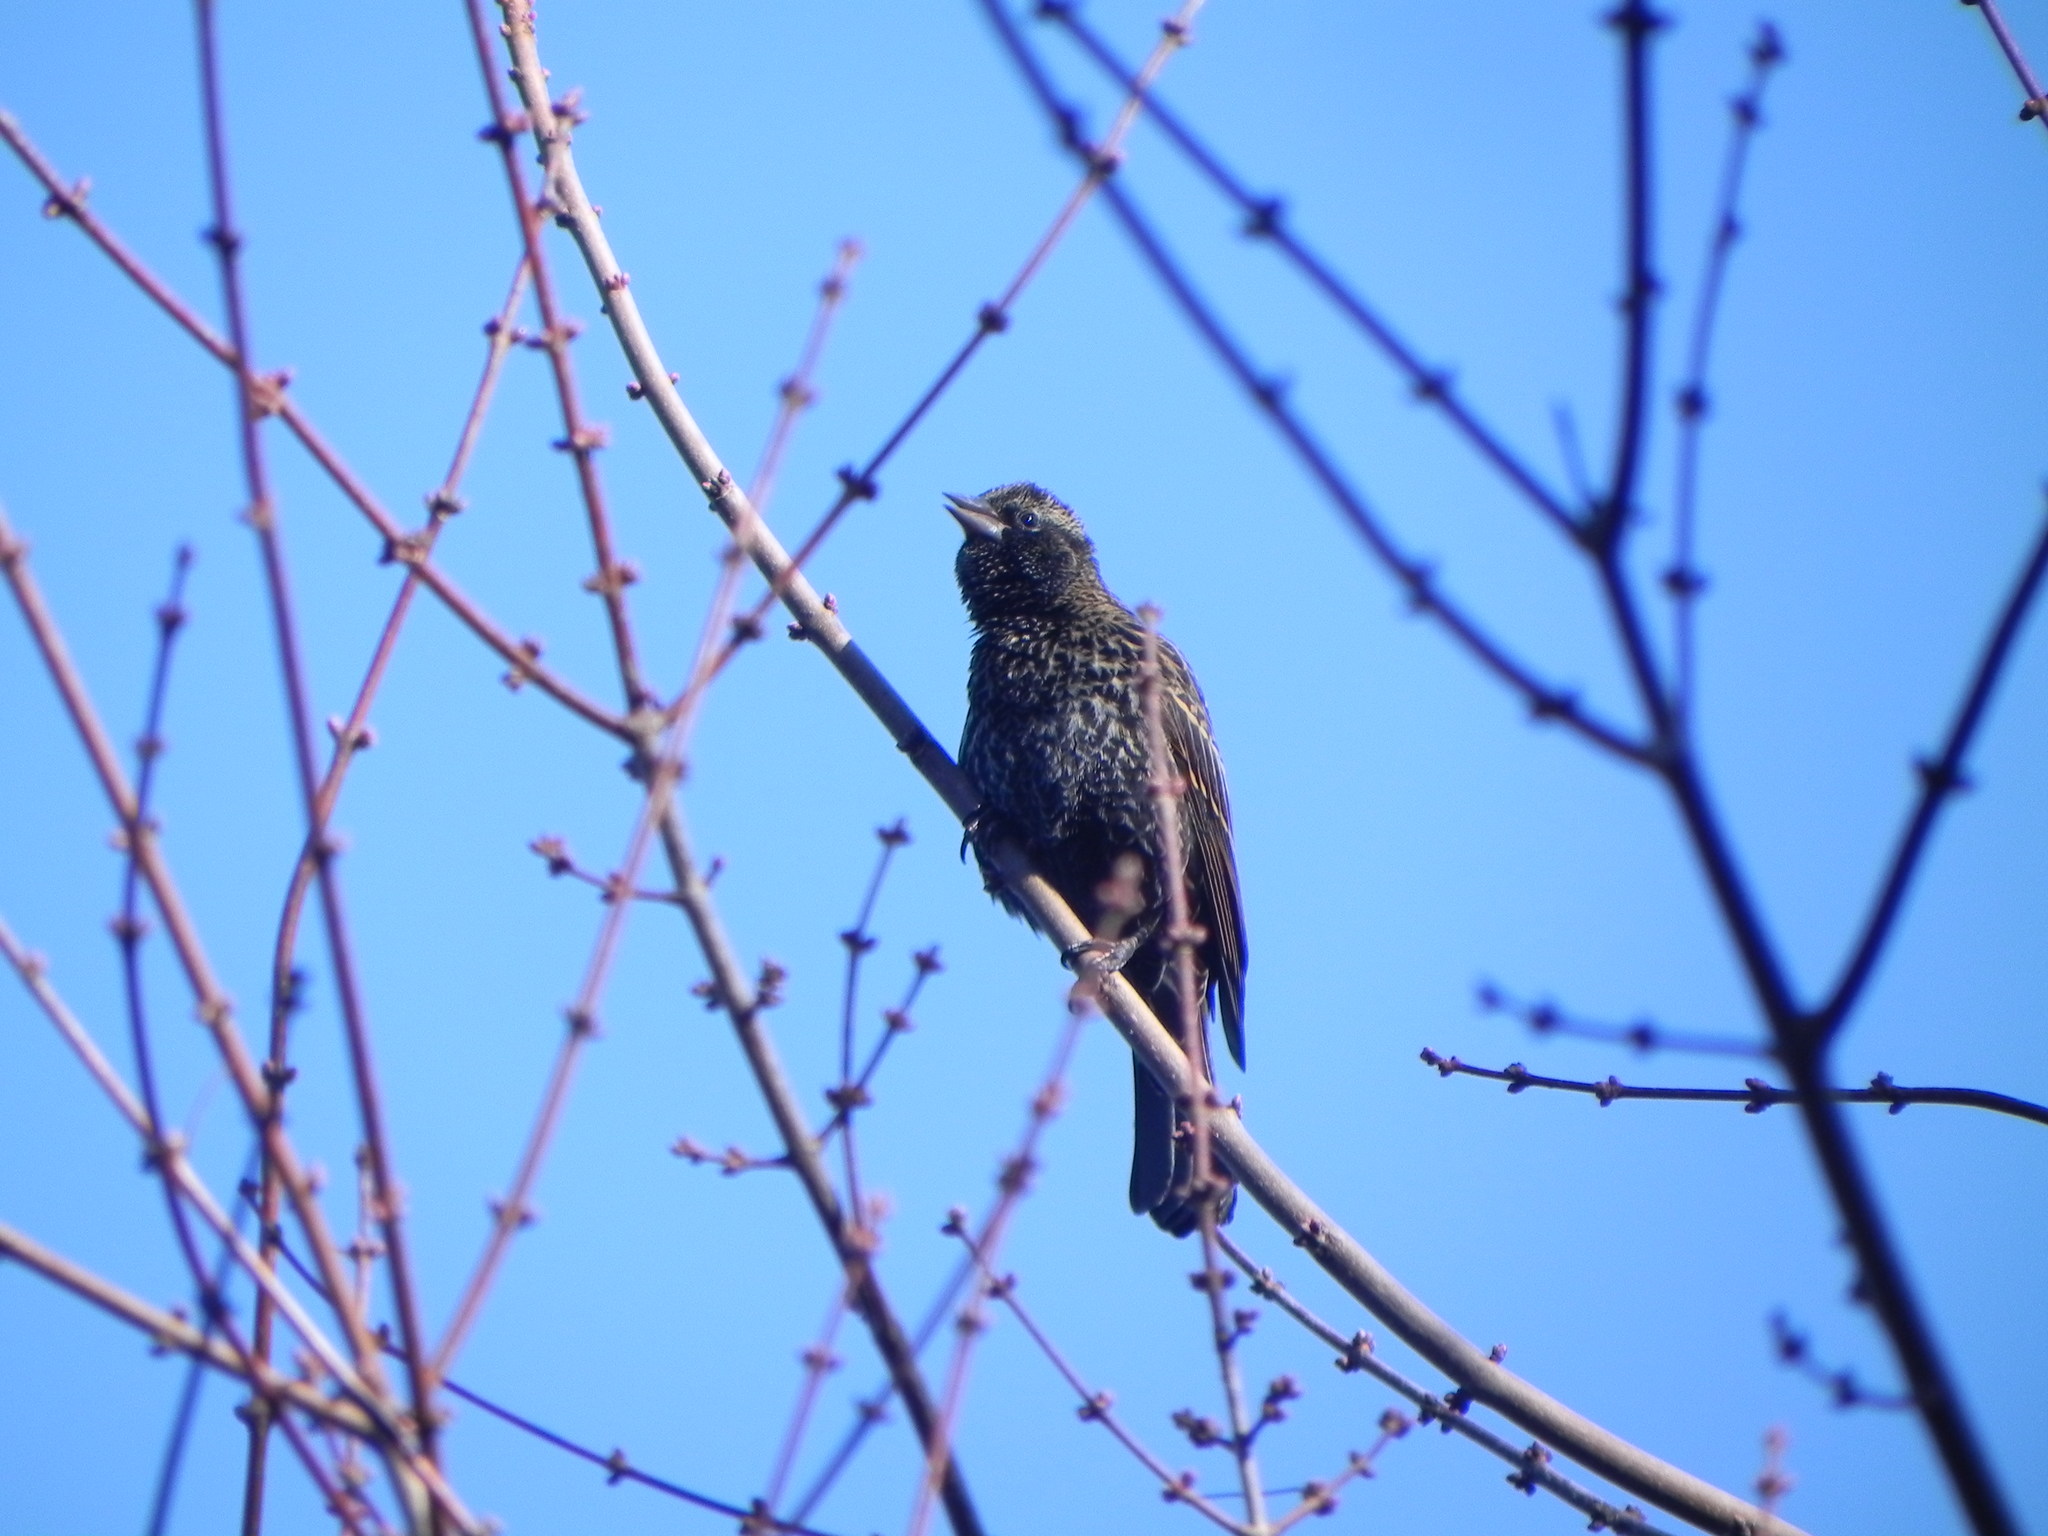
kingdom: Animalia
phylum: Chordata
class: Aves
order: Passeriformes
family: Icteridae
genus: Agelaius
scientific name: Agelaius phoeniceus
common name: Red-winged blackbird
